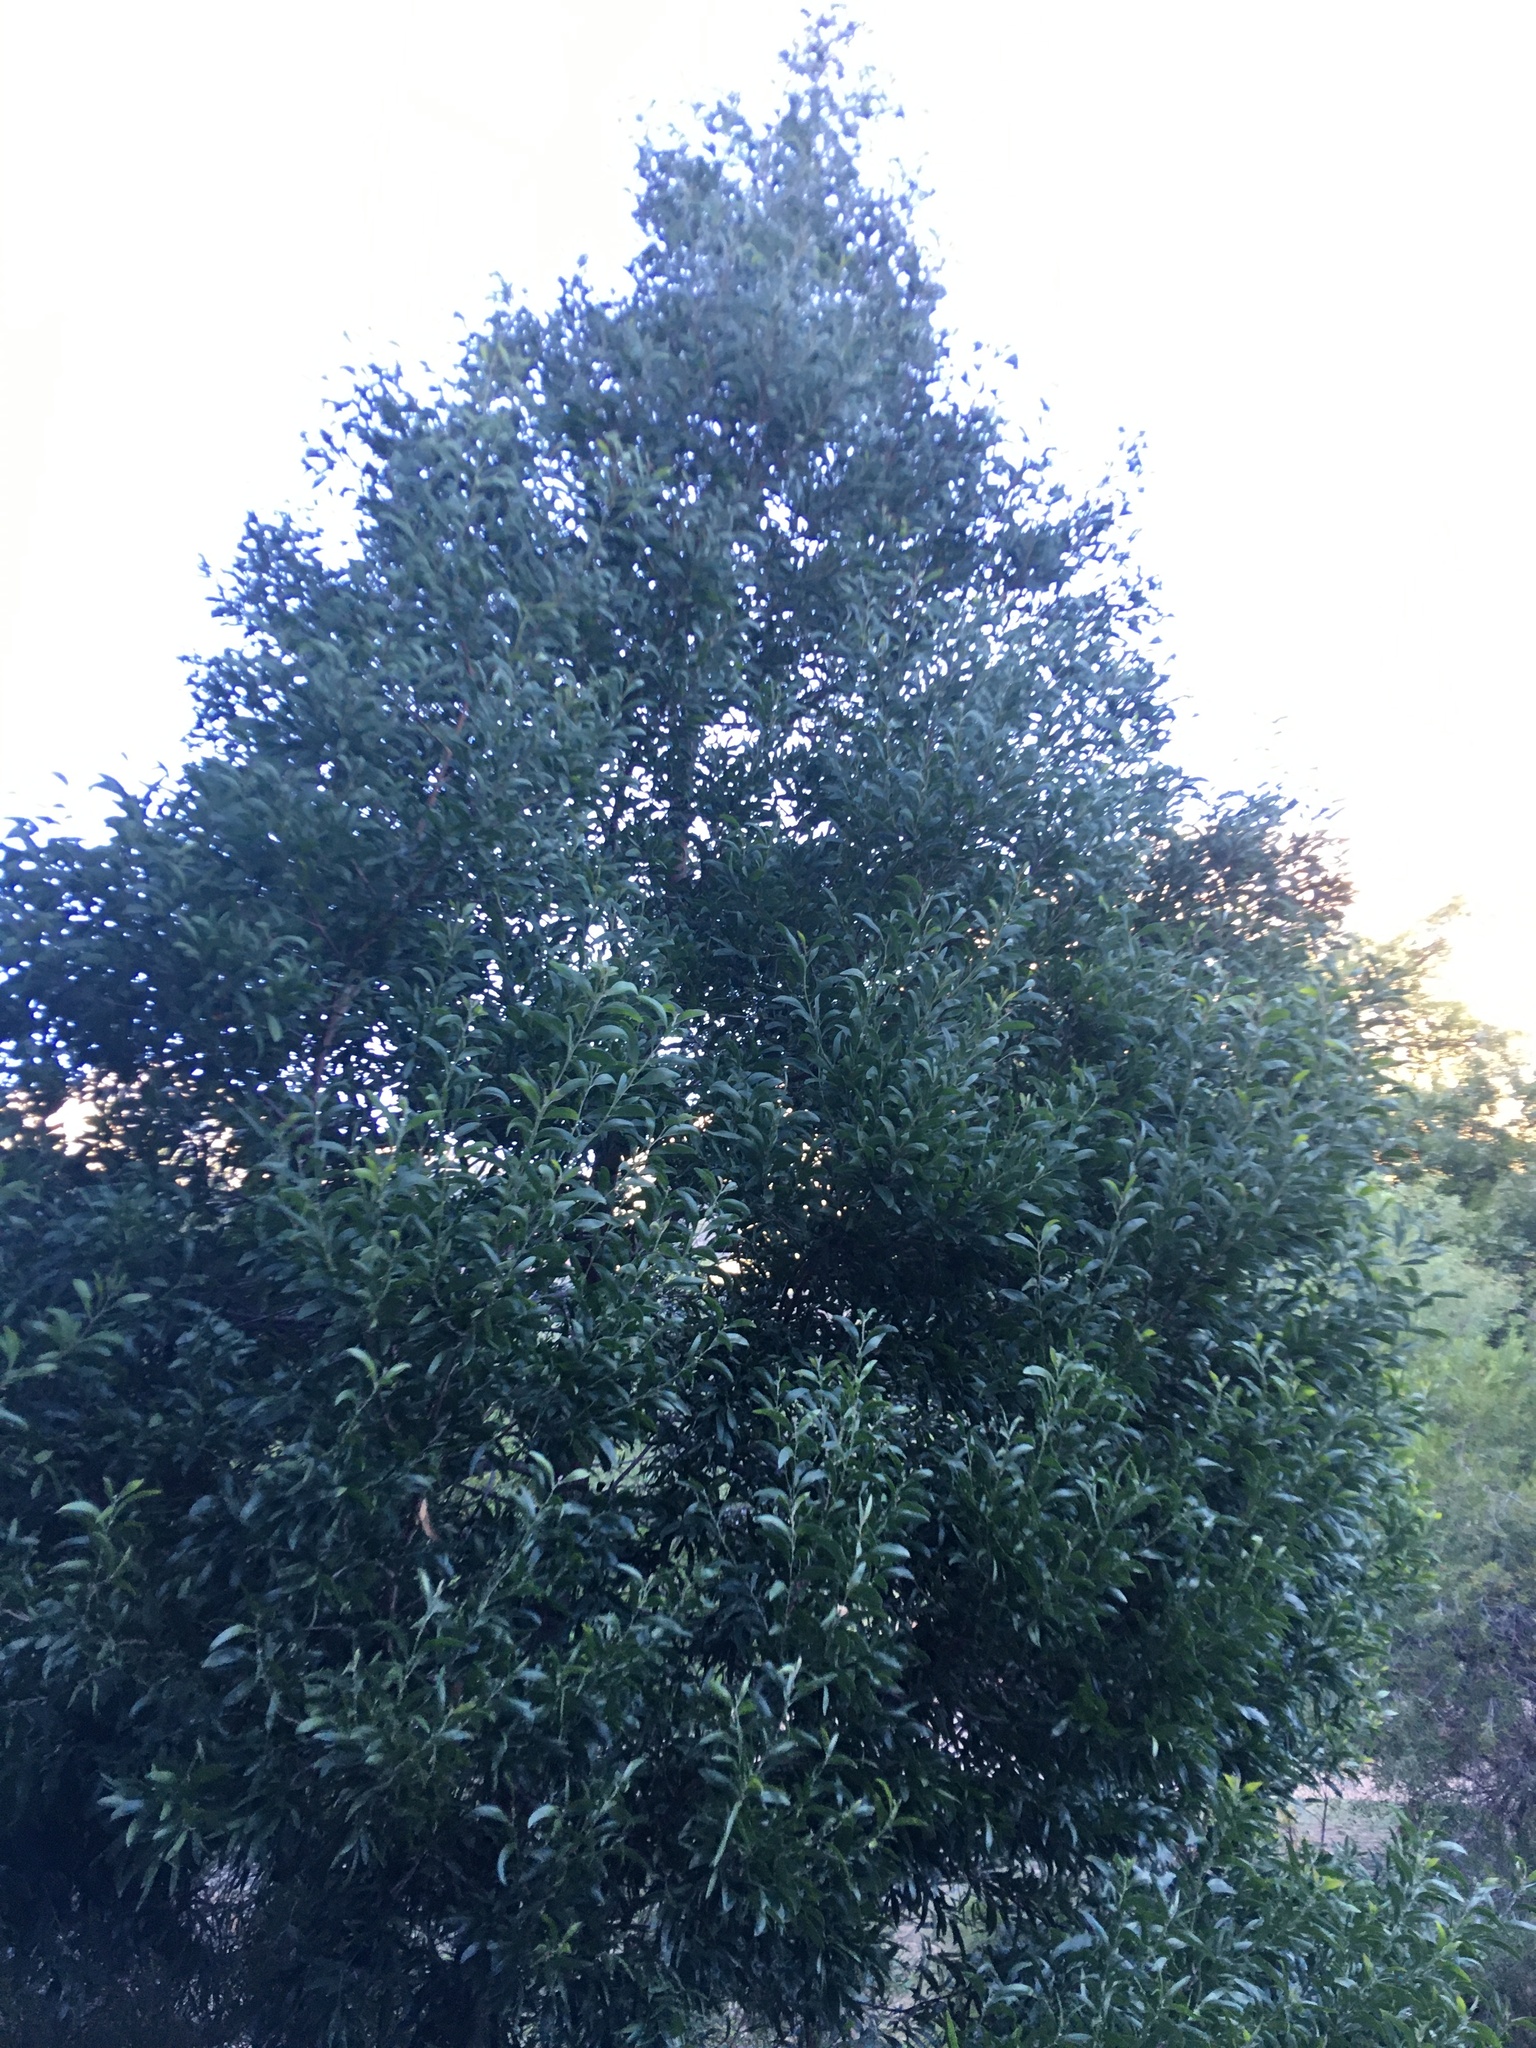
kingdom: Plantae
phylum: Tracheophyta
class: Magnoliopsida
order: Fabales
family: Fabaceae
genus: Acacia
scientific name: Acacia melanoxylon
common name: Blackwood
